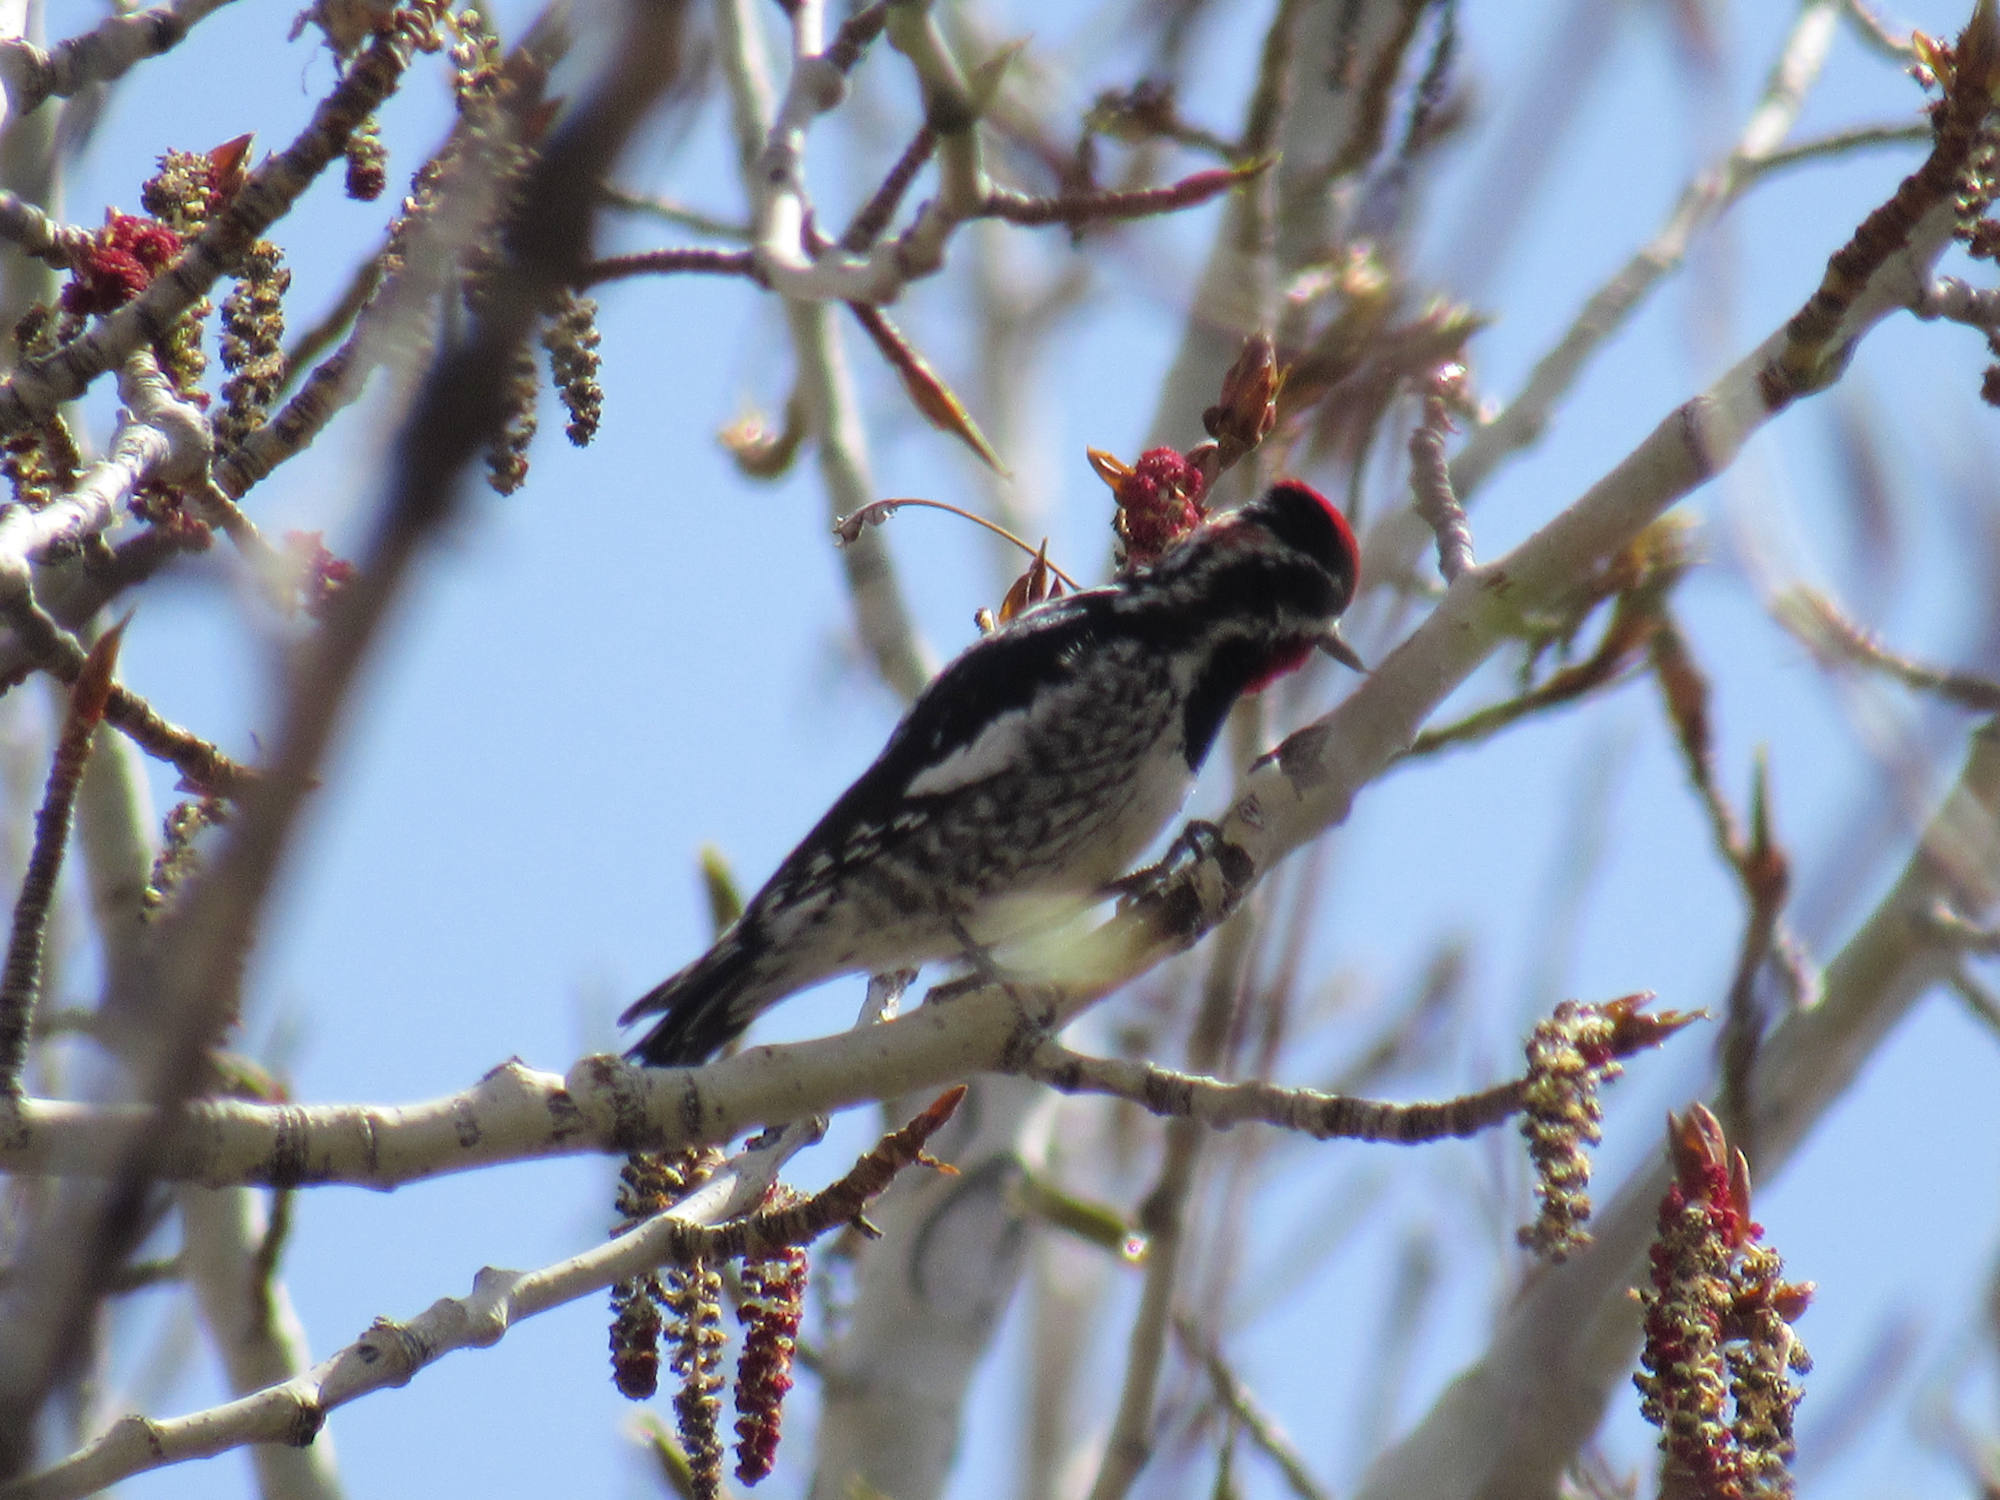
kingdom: Animalia
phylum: Chordata
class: Aves
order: Piciformes
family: Picidae
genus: Sphyrapicus
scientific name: Sphyrapicus nuchalis
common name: Red-naped sapsucker
